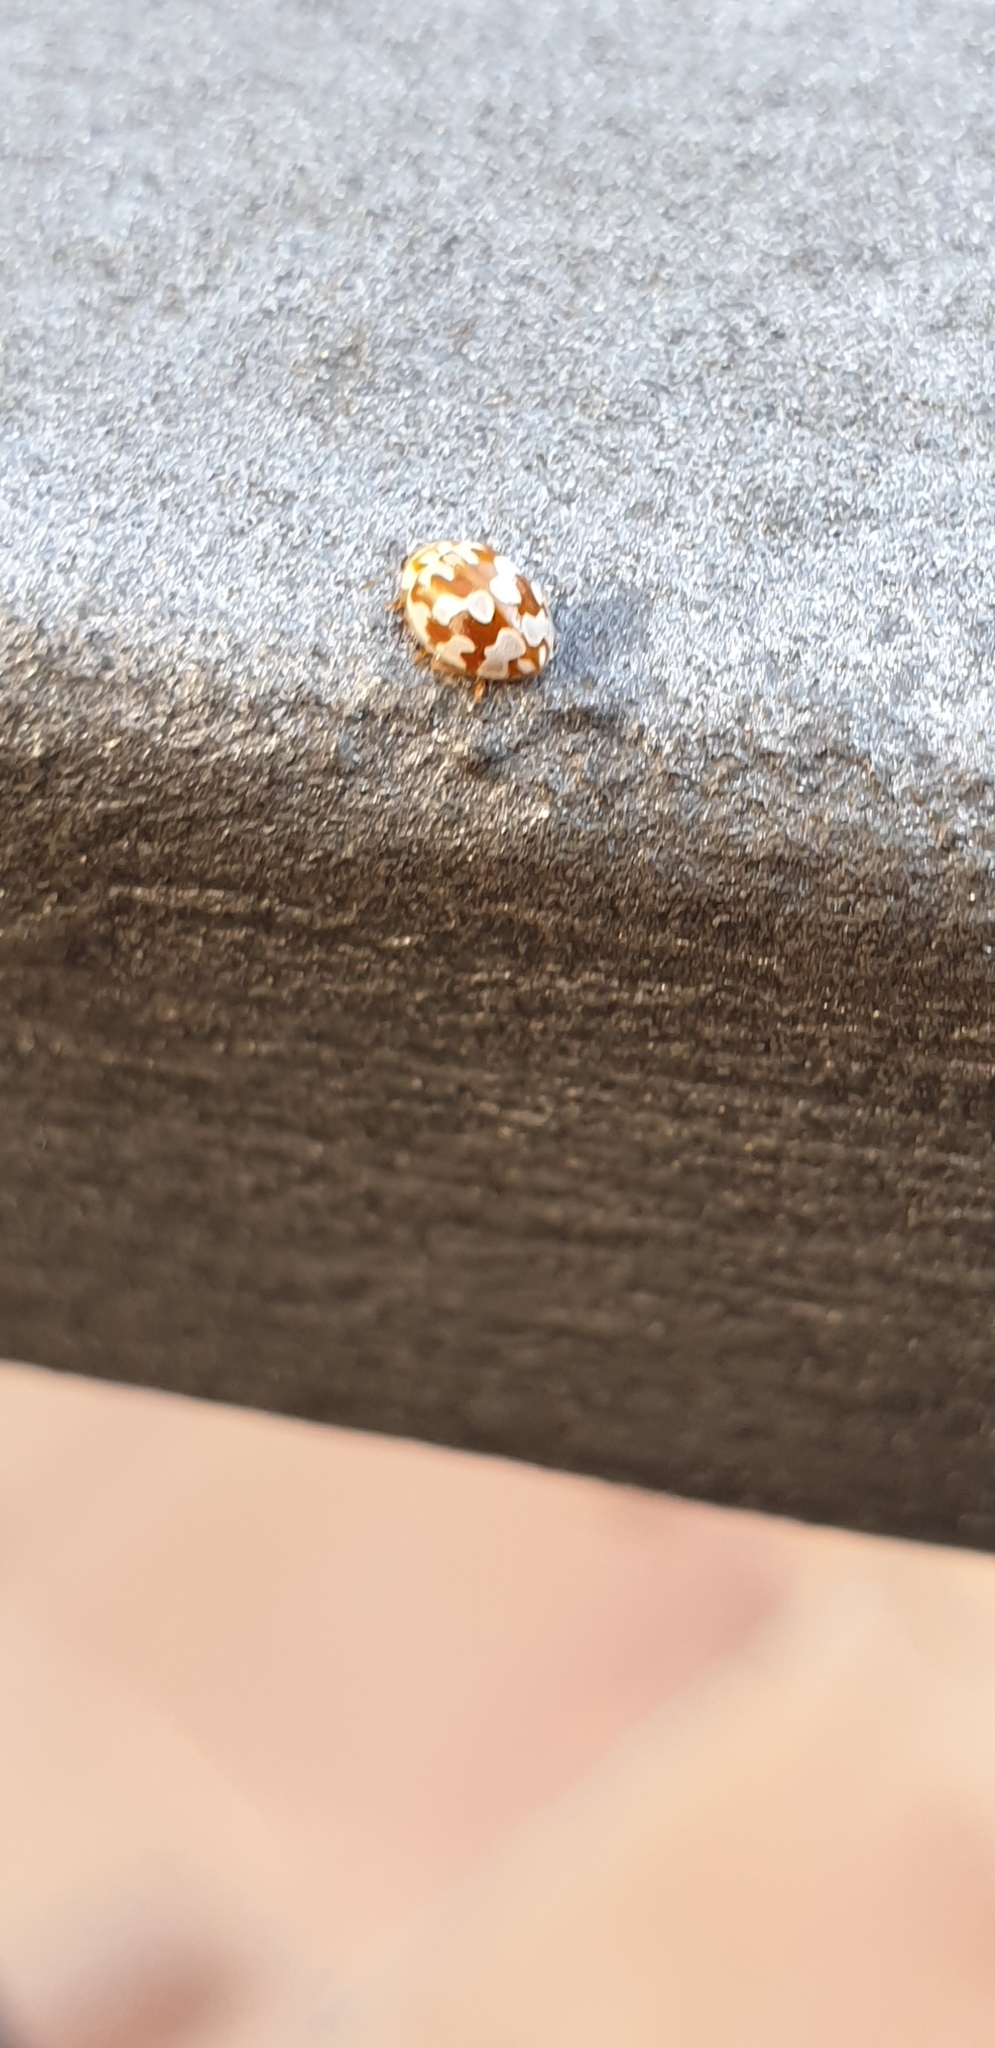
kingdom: Animalia
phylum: Arthropoda
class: Insecta
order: Coleoptera
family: Coccinellidae
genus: Myrrha
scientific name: Myrrha octodecimguttata
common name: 18-spot ladybird
